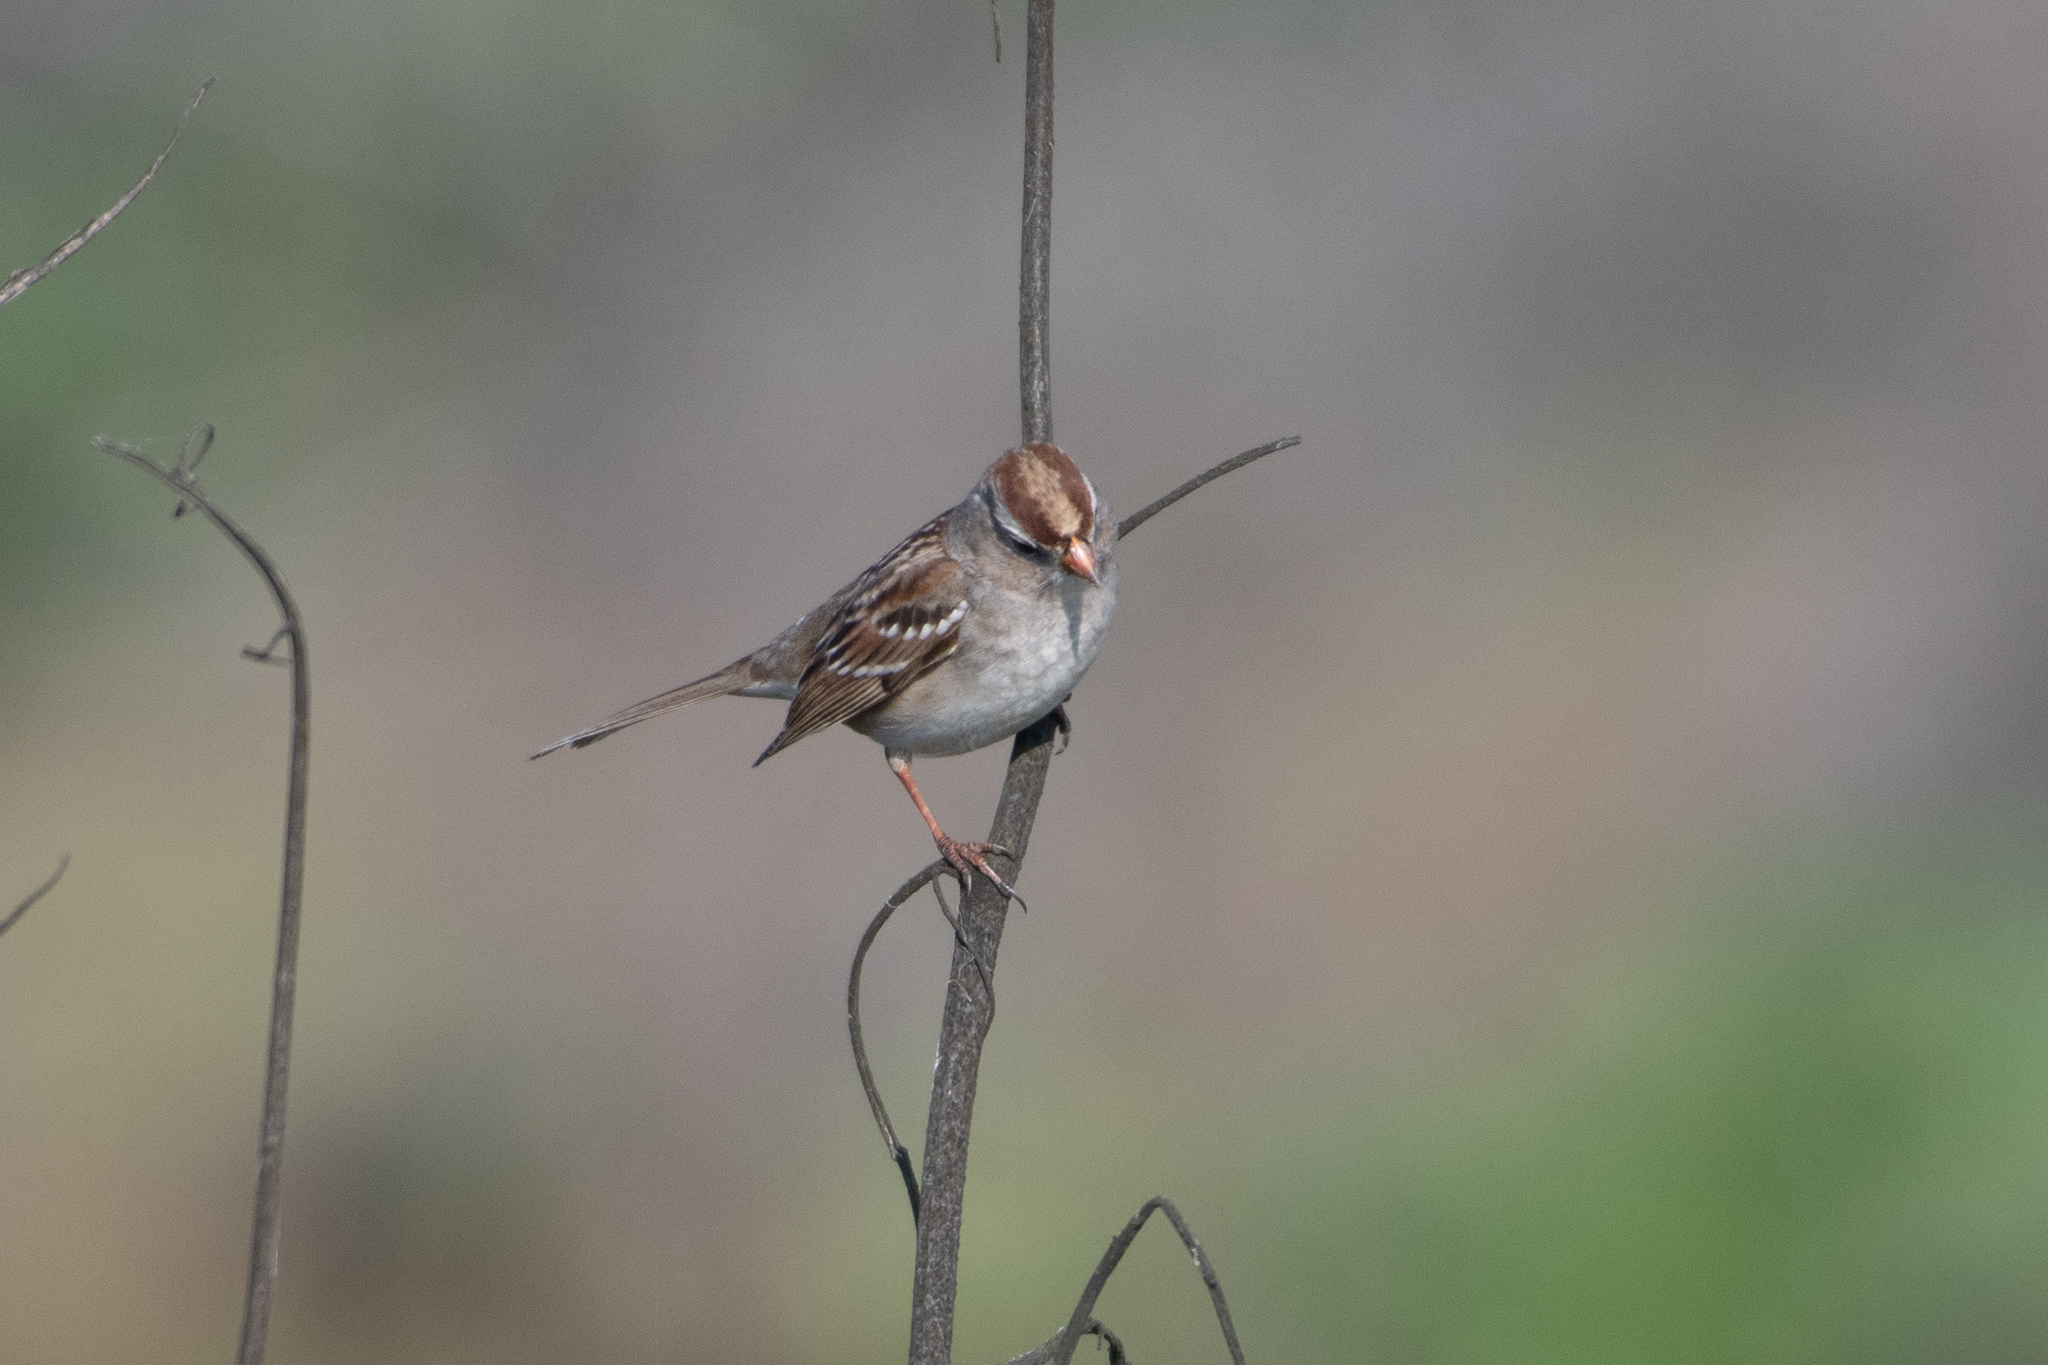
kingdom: Animalia
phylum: Chordata
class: Aves
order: Passeriformes
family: Passerellidae
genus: Zonotrichia
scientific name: Zonotrichia leucophrys
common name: White-crowned sparrow
